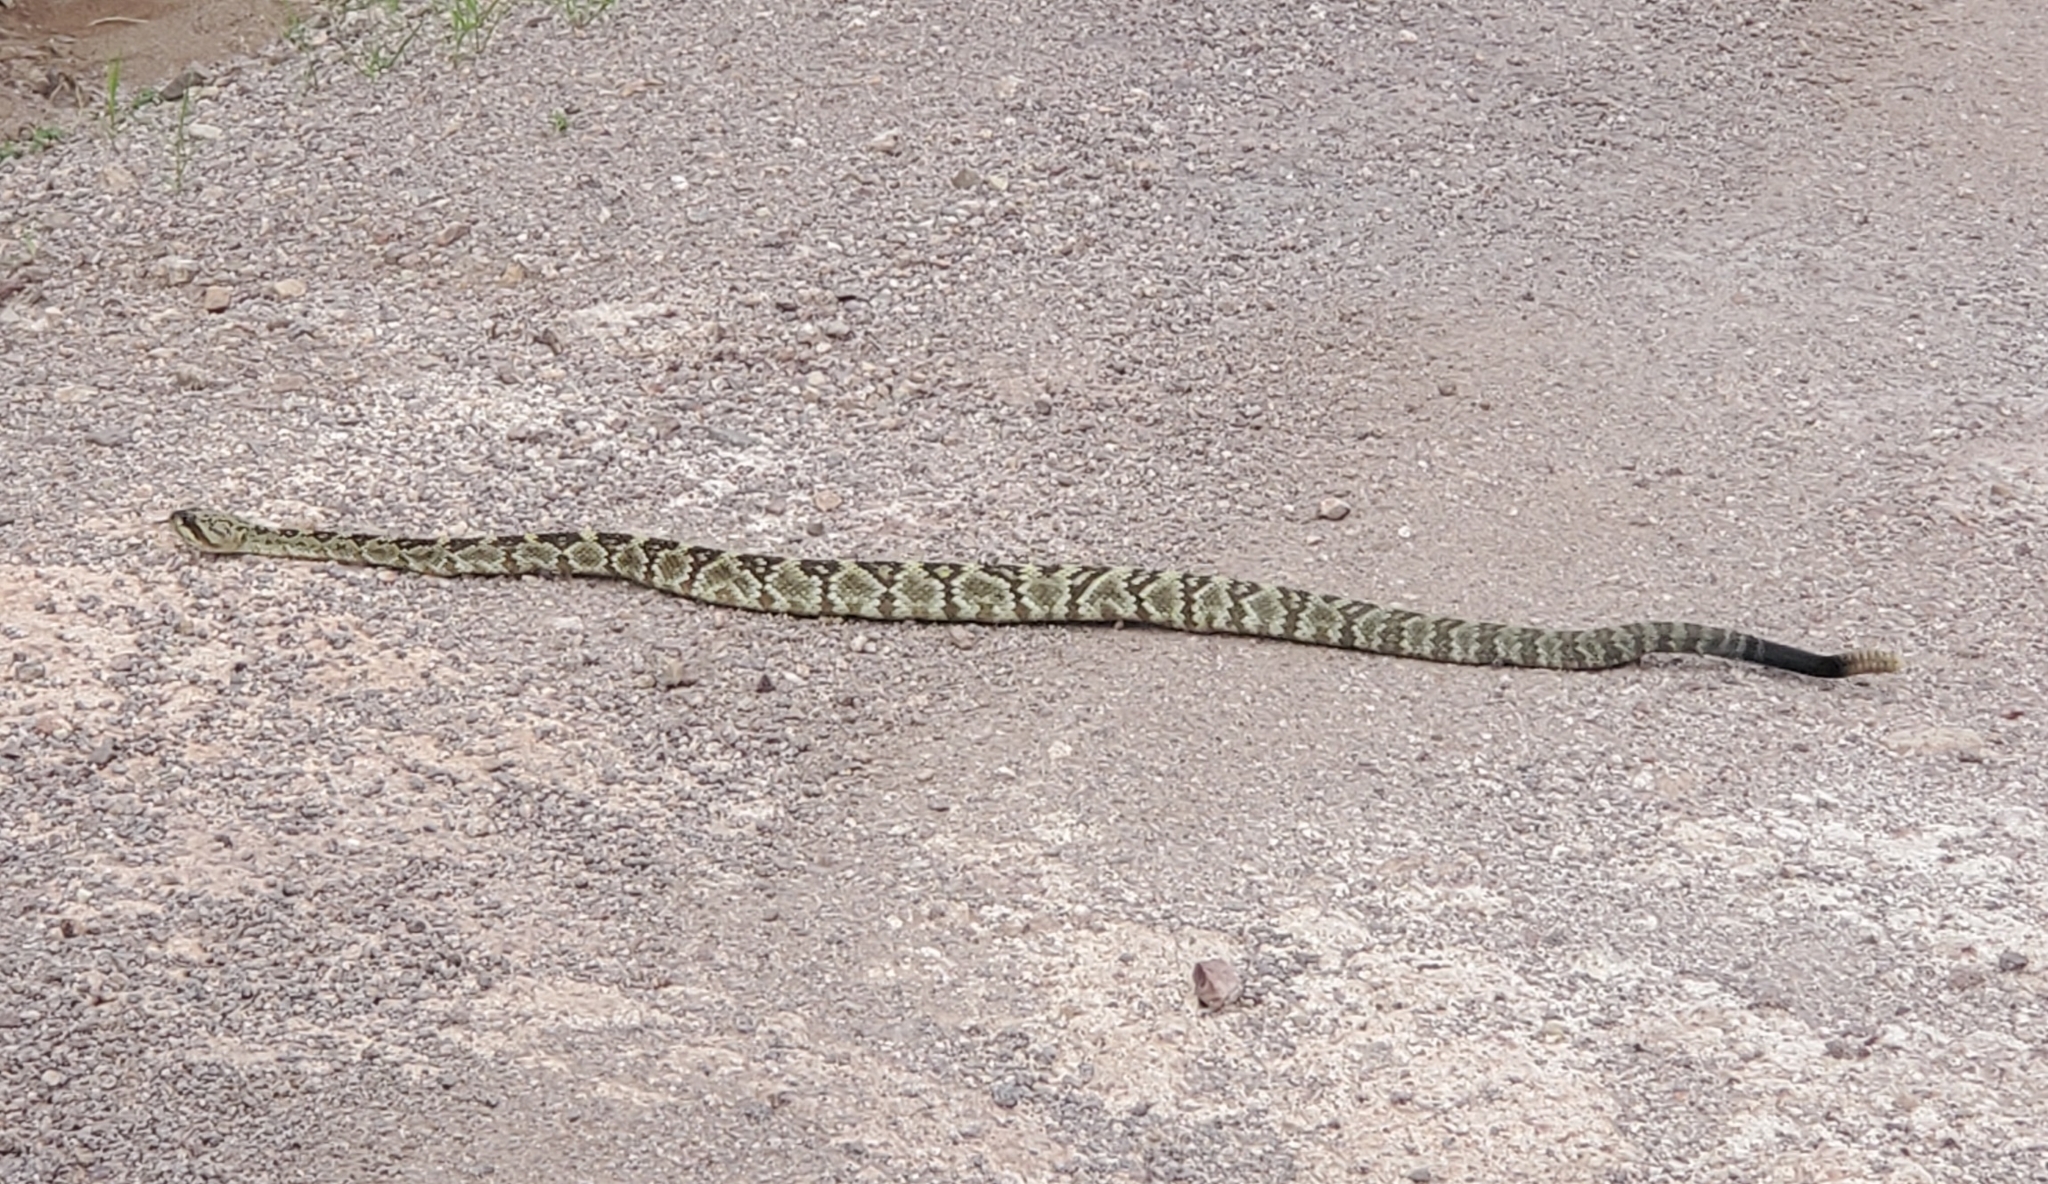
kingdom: Animalia
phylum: Chordata
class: Squamata
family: Viperidae
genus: Crotalus
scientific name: Crotalus molossus
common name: Black tailed rattlesnake
